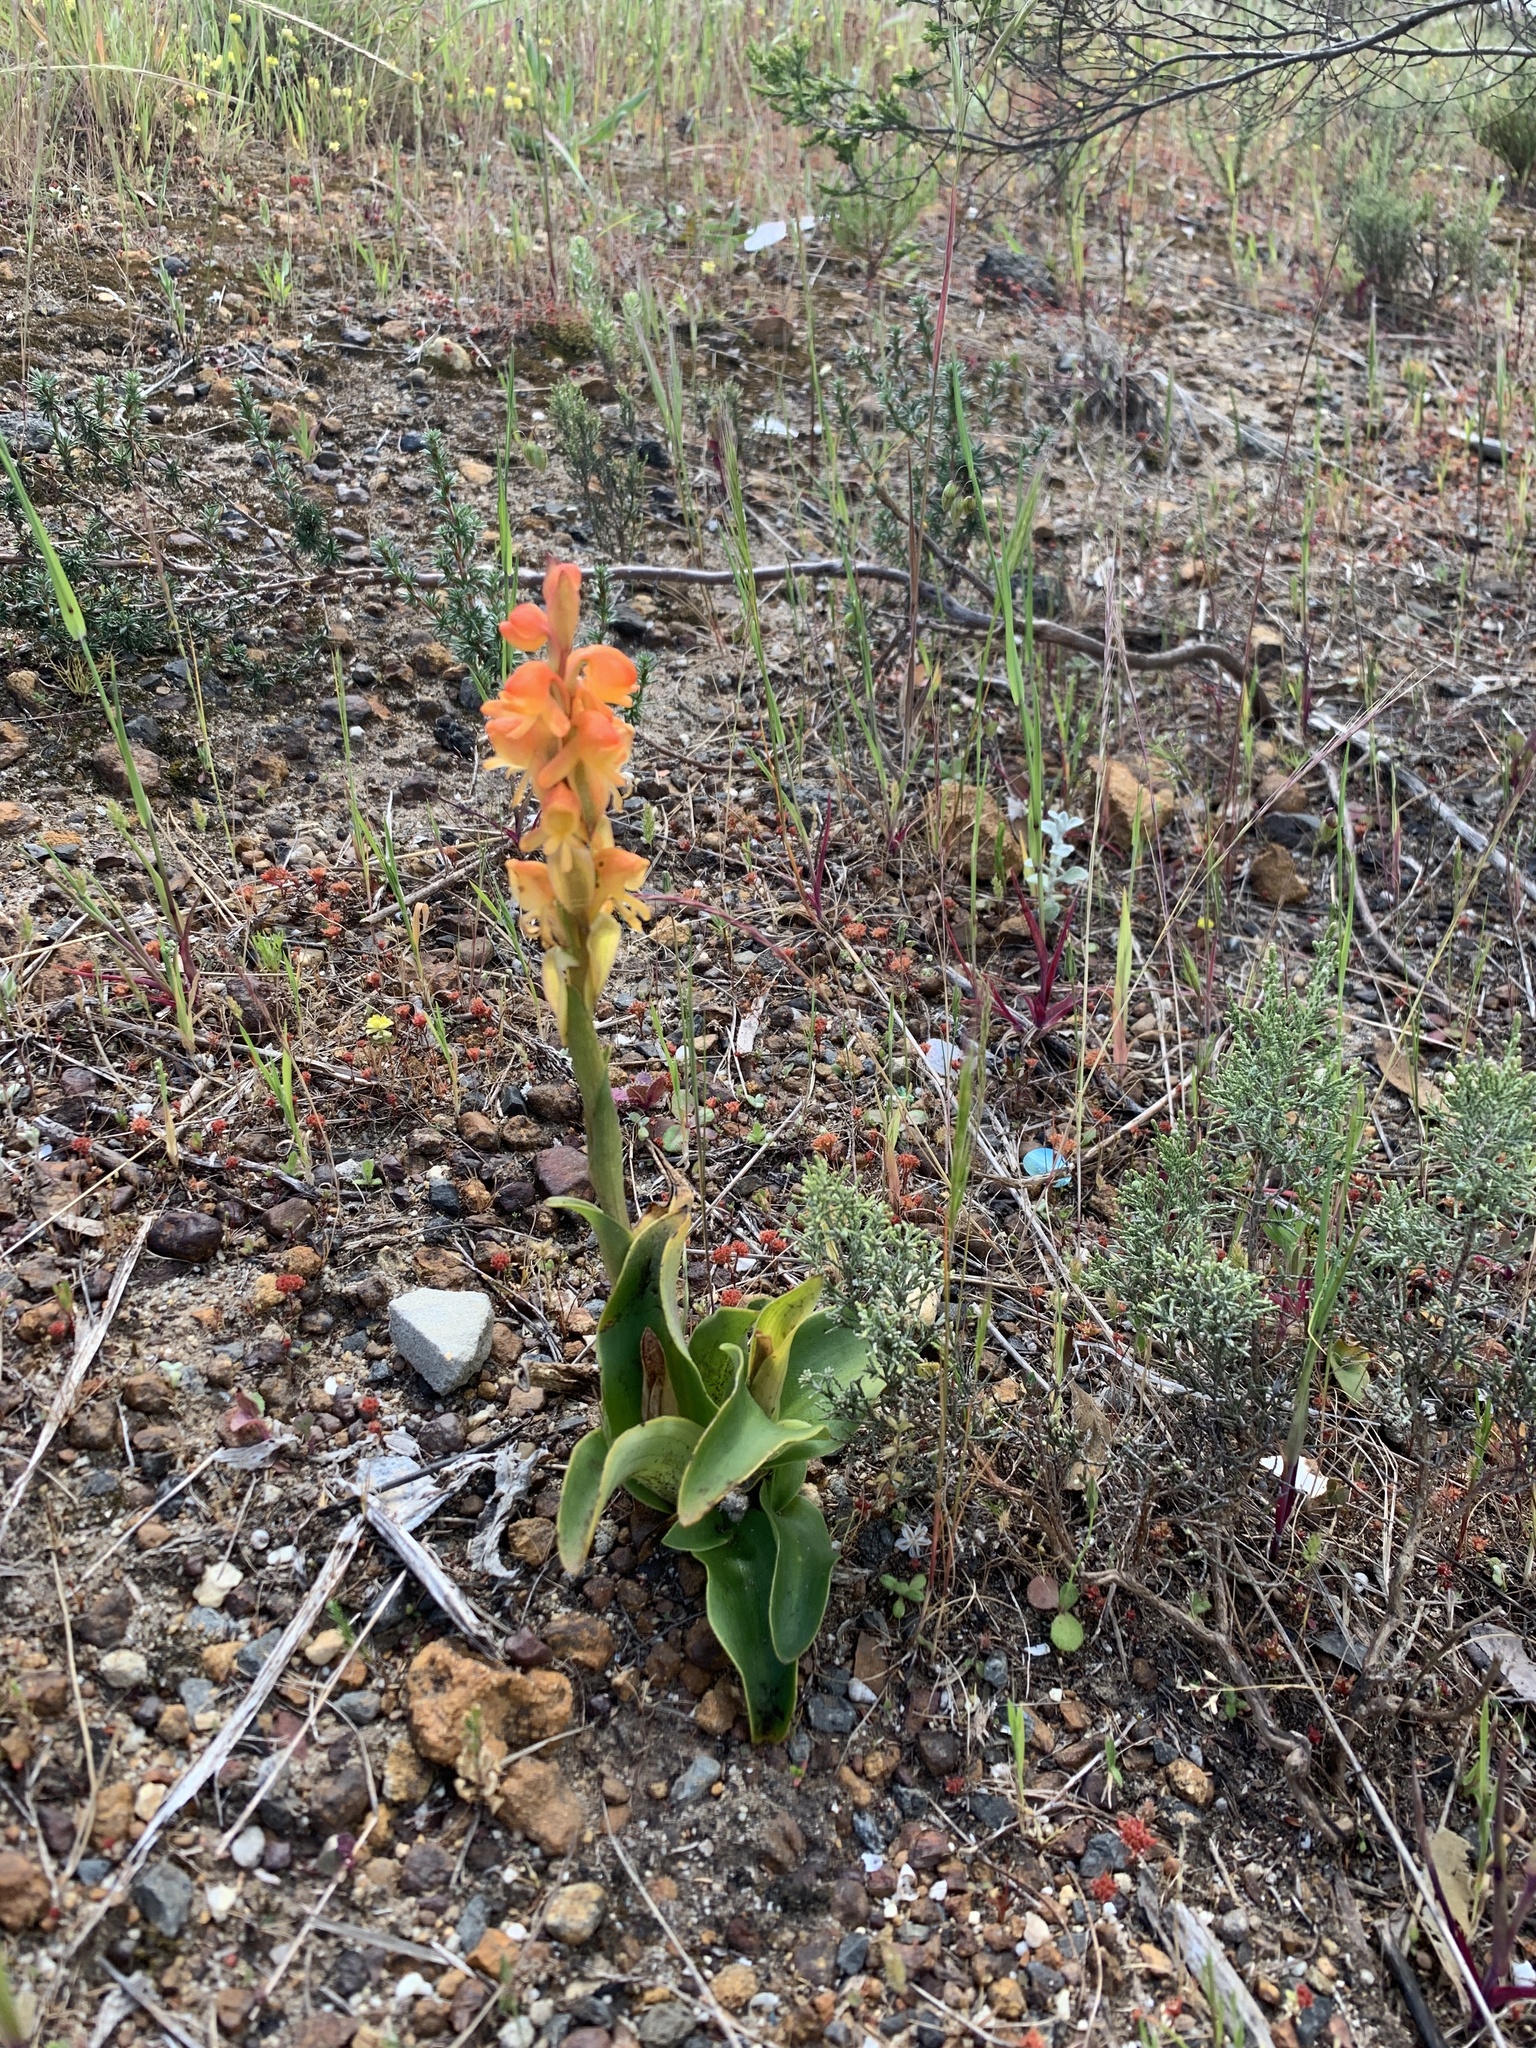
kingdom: Plantae
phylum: Tracheophyta
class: Liliopsida
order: Asparagales
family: Orchidaceae
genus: Satyrium
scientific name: Satyrium coriifolium
